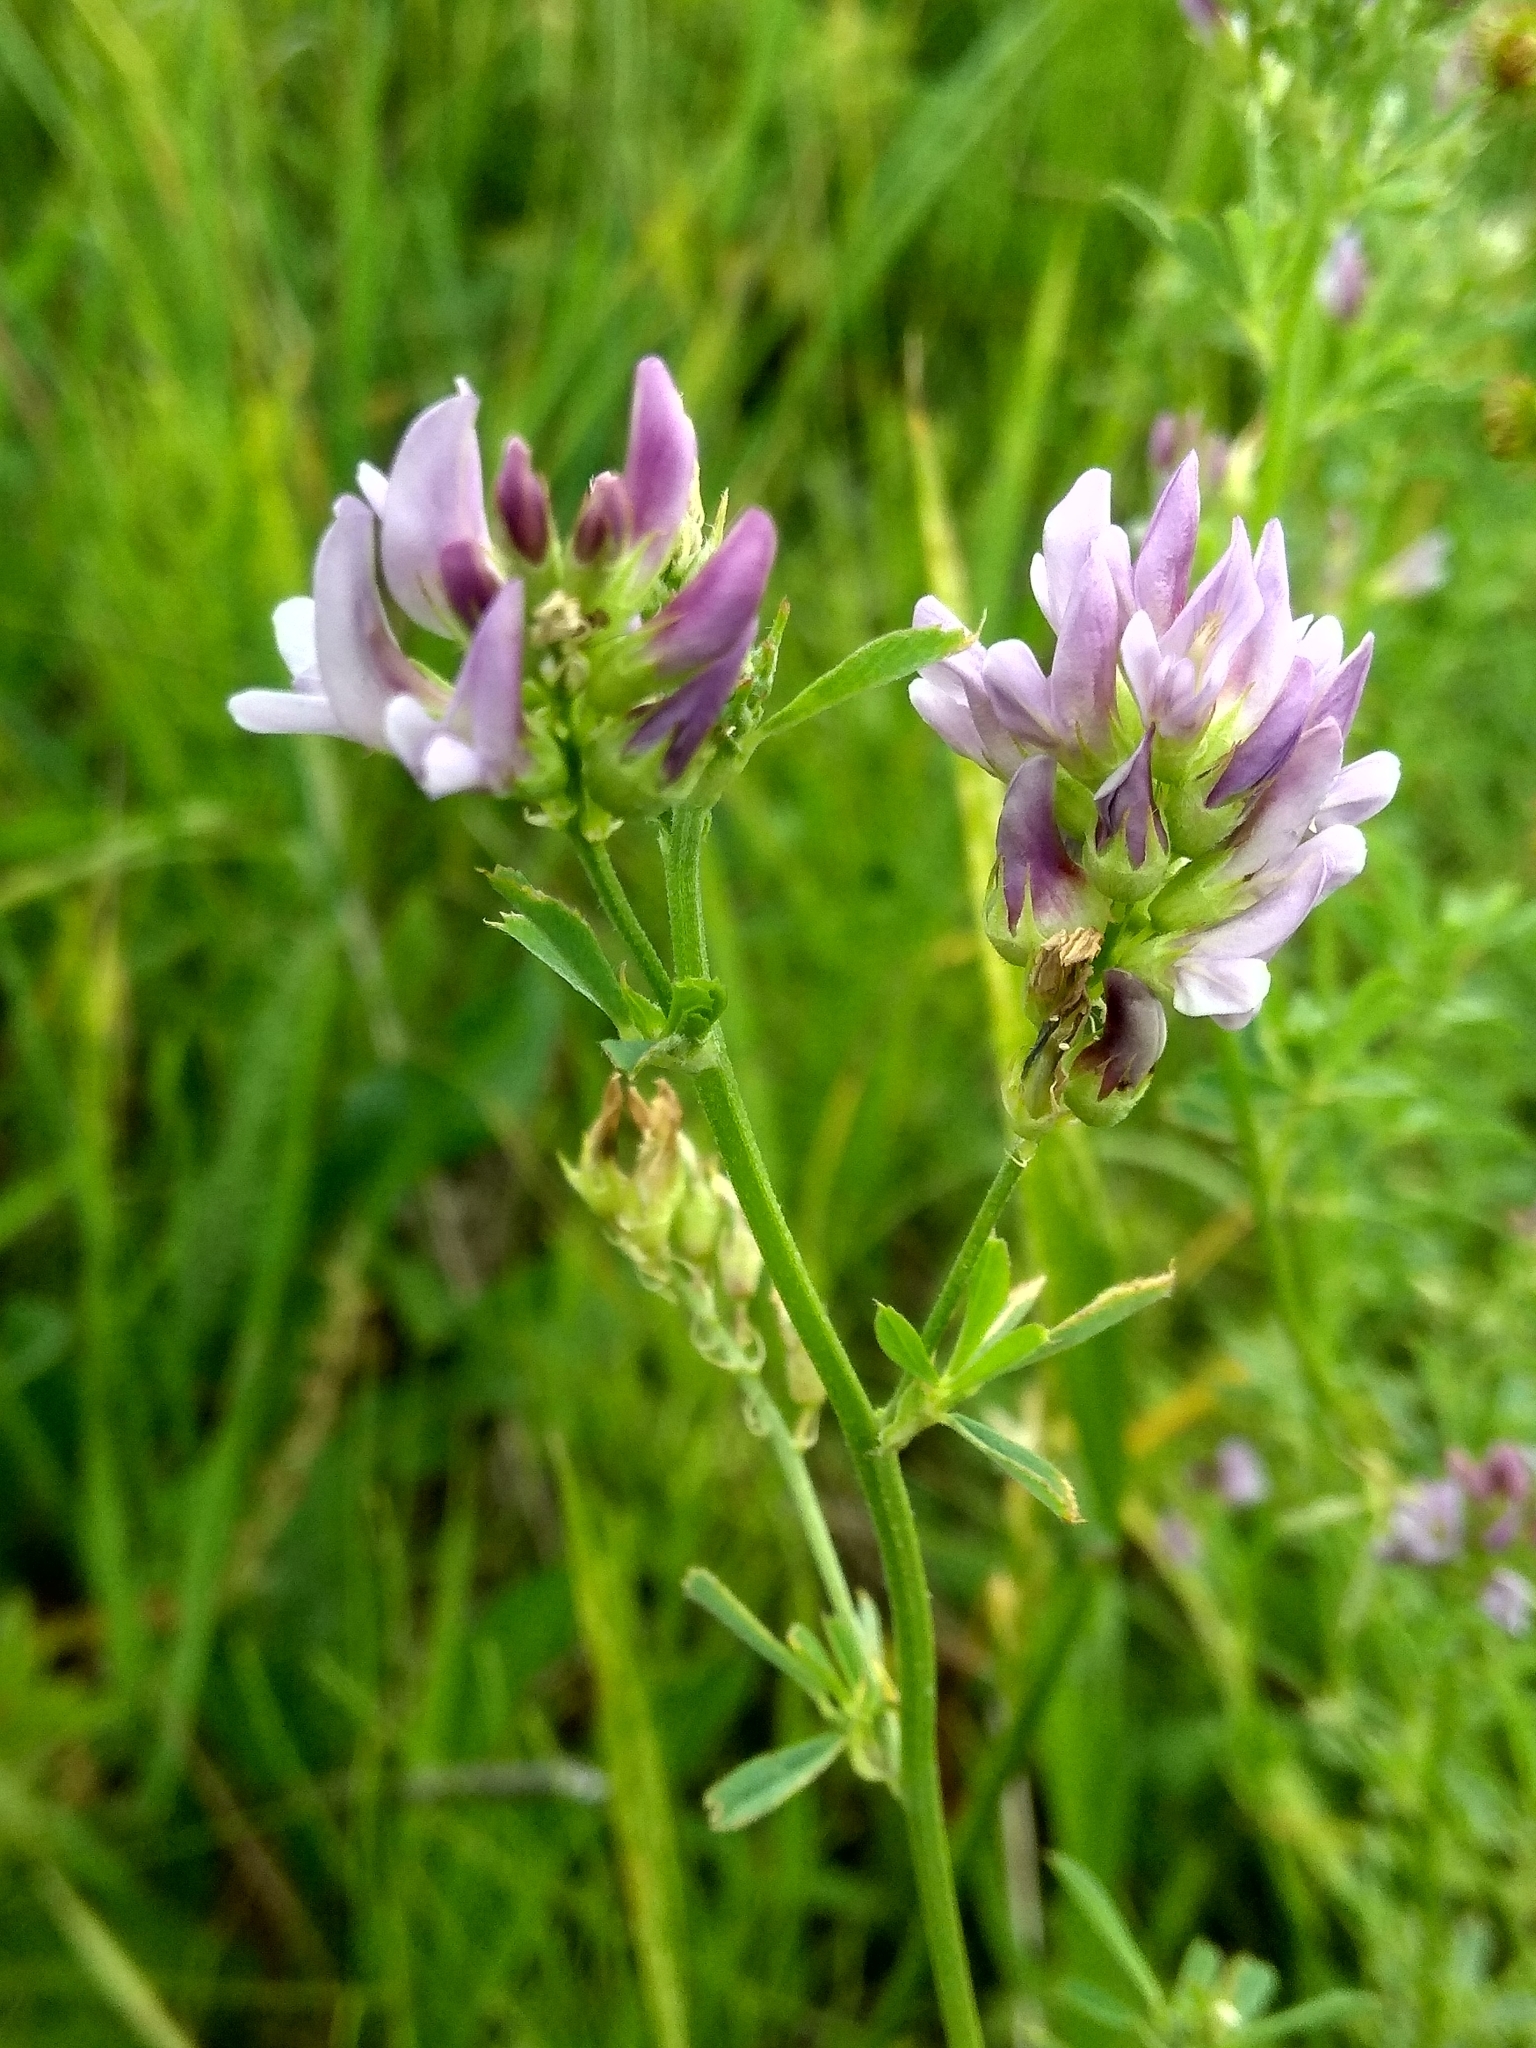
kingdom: Plantae
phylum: Tracheophyta
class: Magnoliopsida
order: Fabales
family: Fabaceae
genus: Medicago
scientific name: Medicago varia
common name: Sand lucerne
